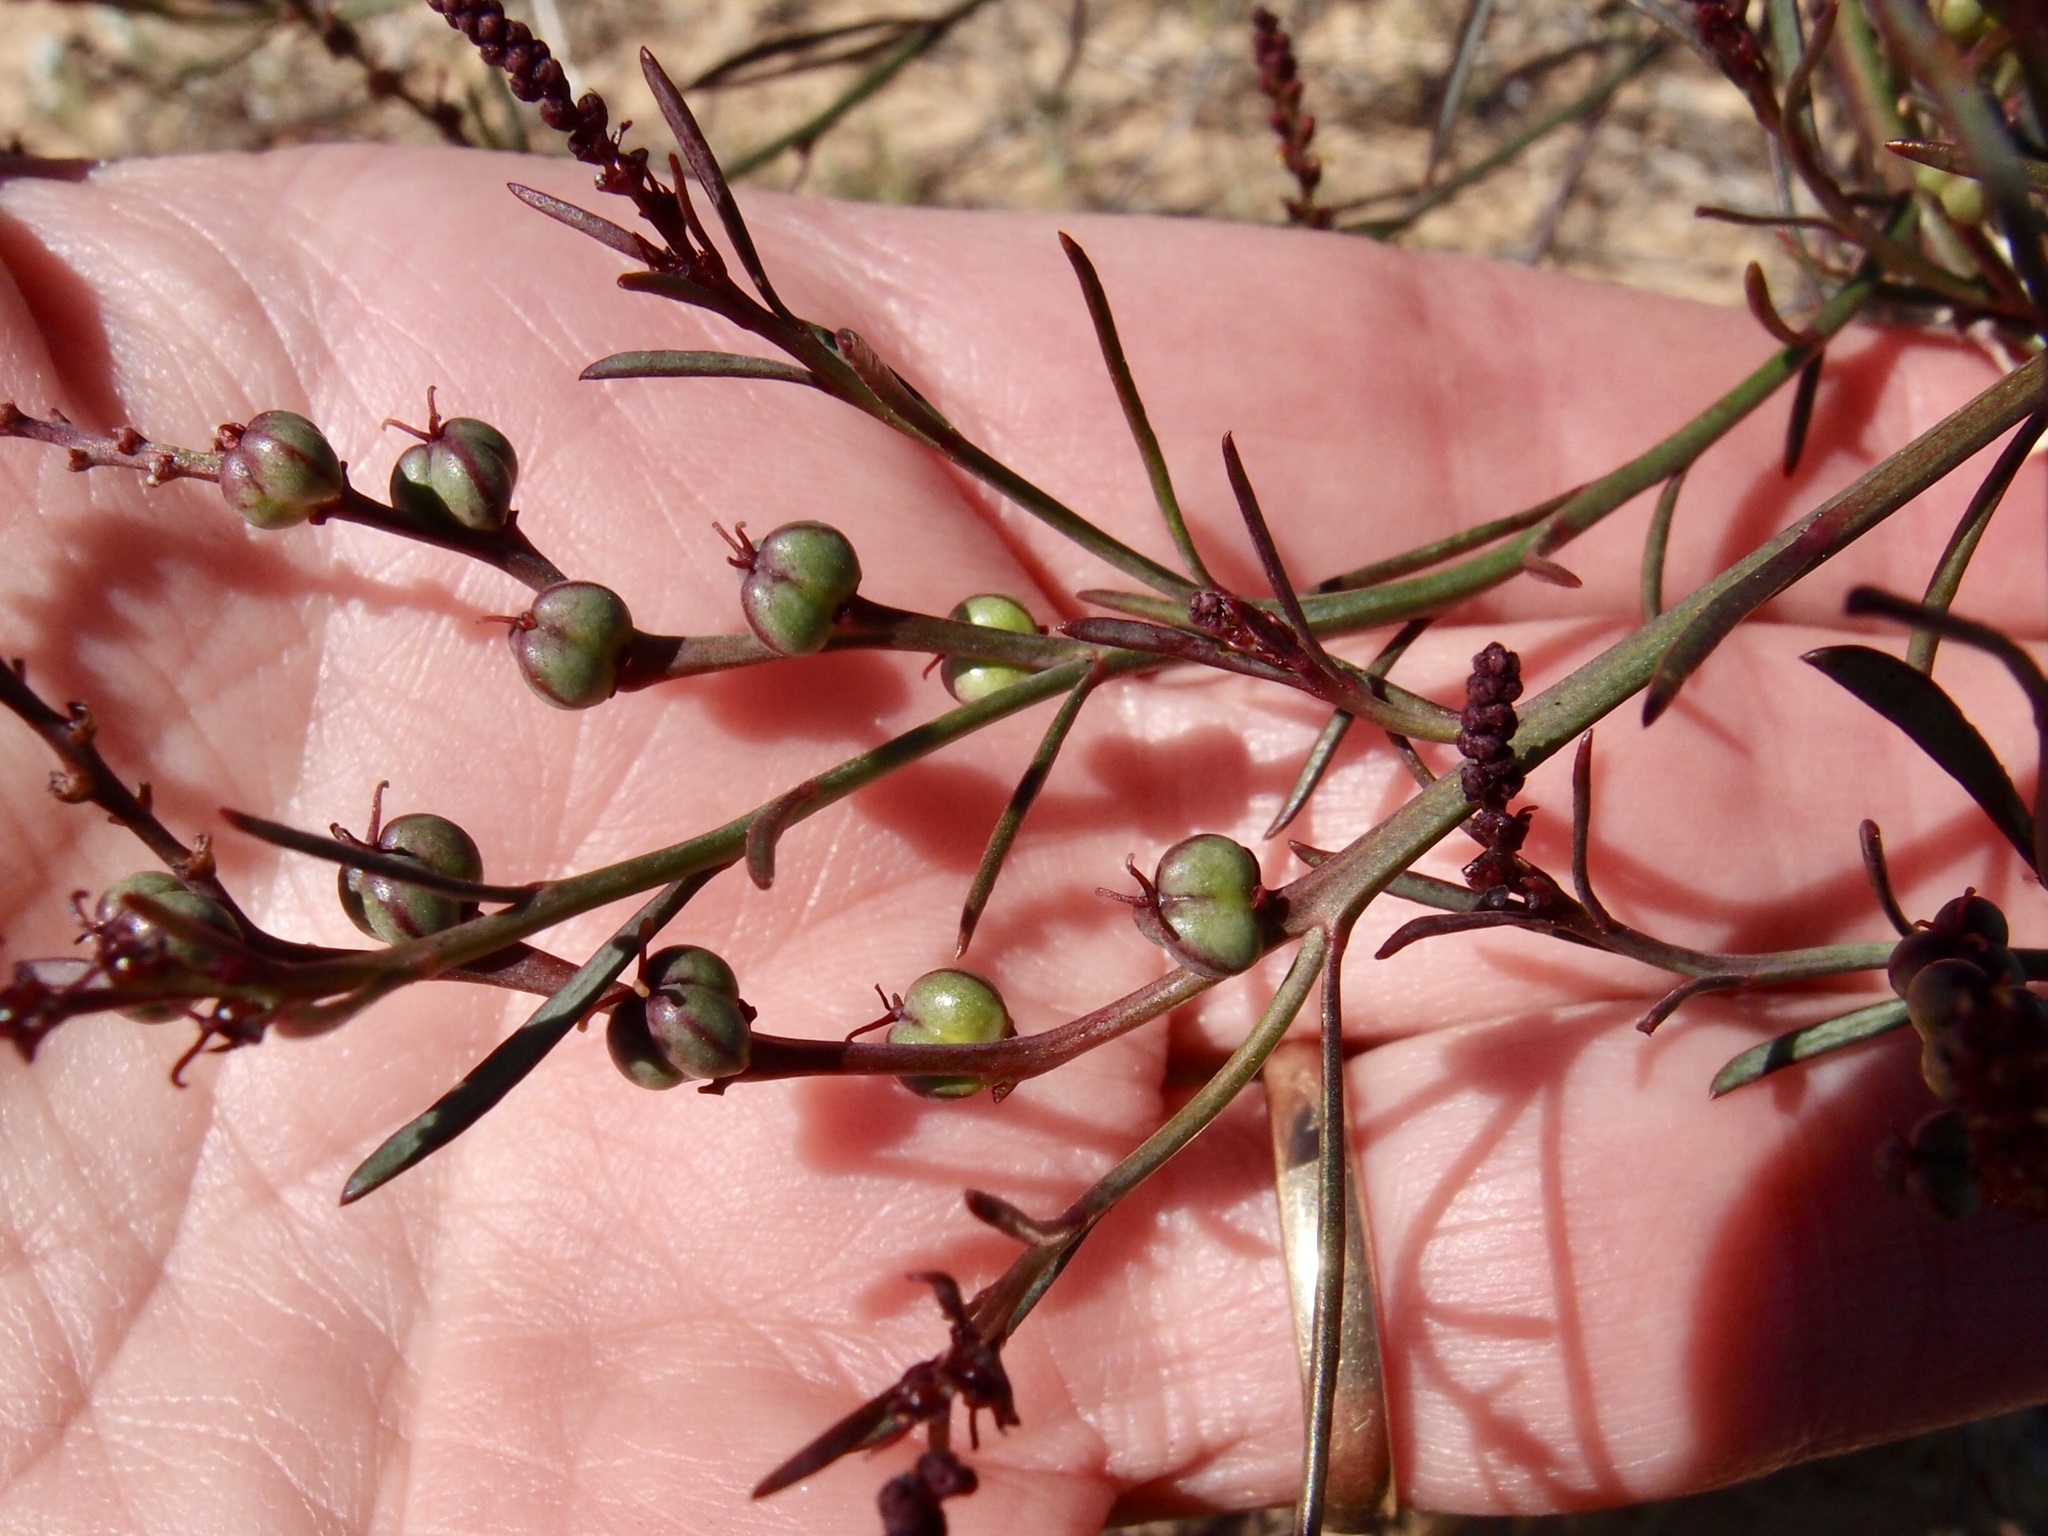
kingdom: Plantae
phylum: Tracheophyta
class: Magnoliopsida
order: Malpighiales
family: Euphorbiaceae
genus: Stillingia
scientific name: Stillingia linearifolia
